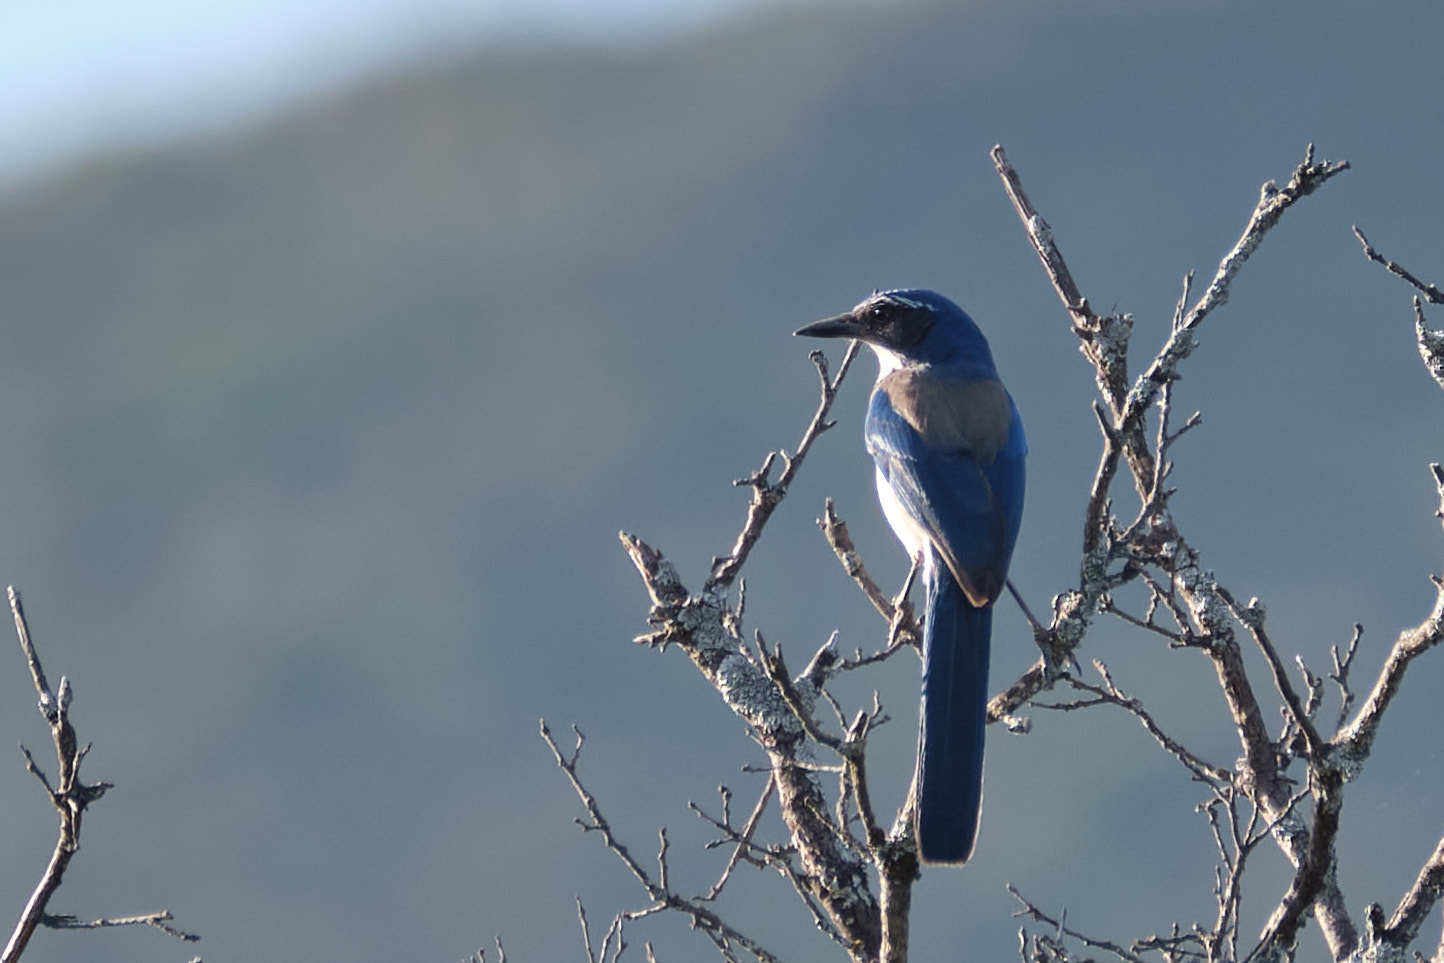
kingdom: Animalia
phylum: Chordata
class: Aves
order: Passeriformes
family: Corvidae
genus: Aphelocoma
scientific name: Aphelocoma californica
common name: California scrub-jay
